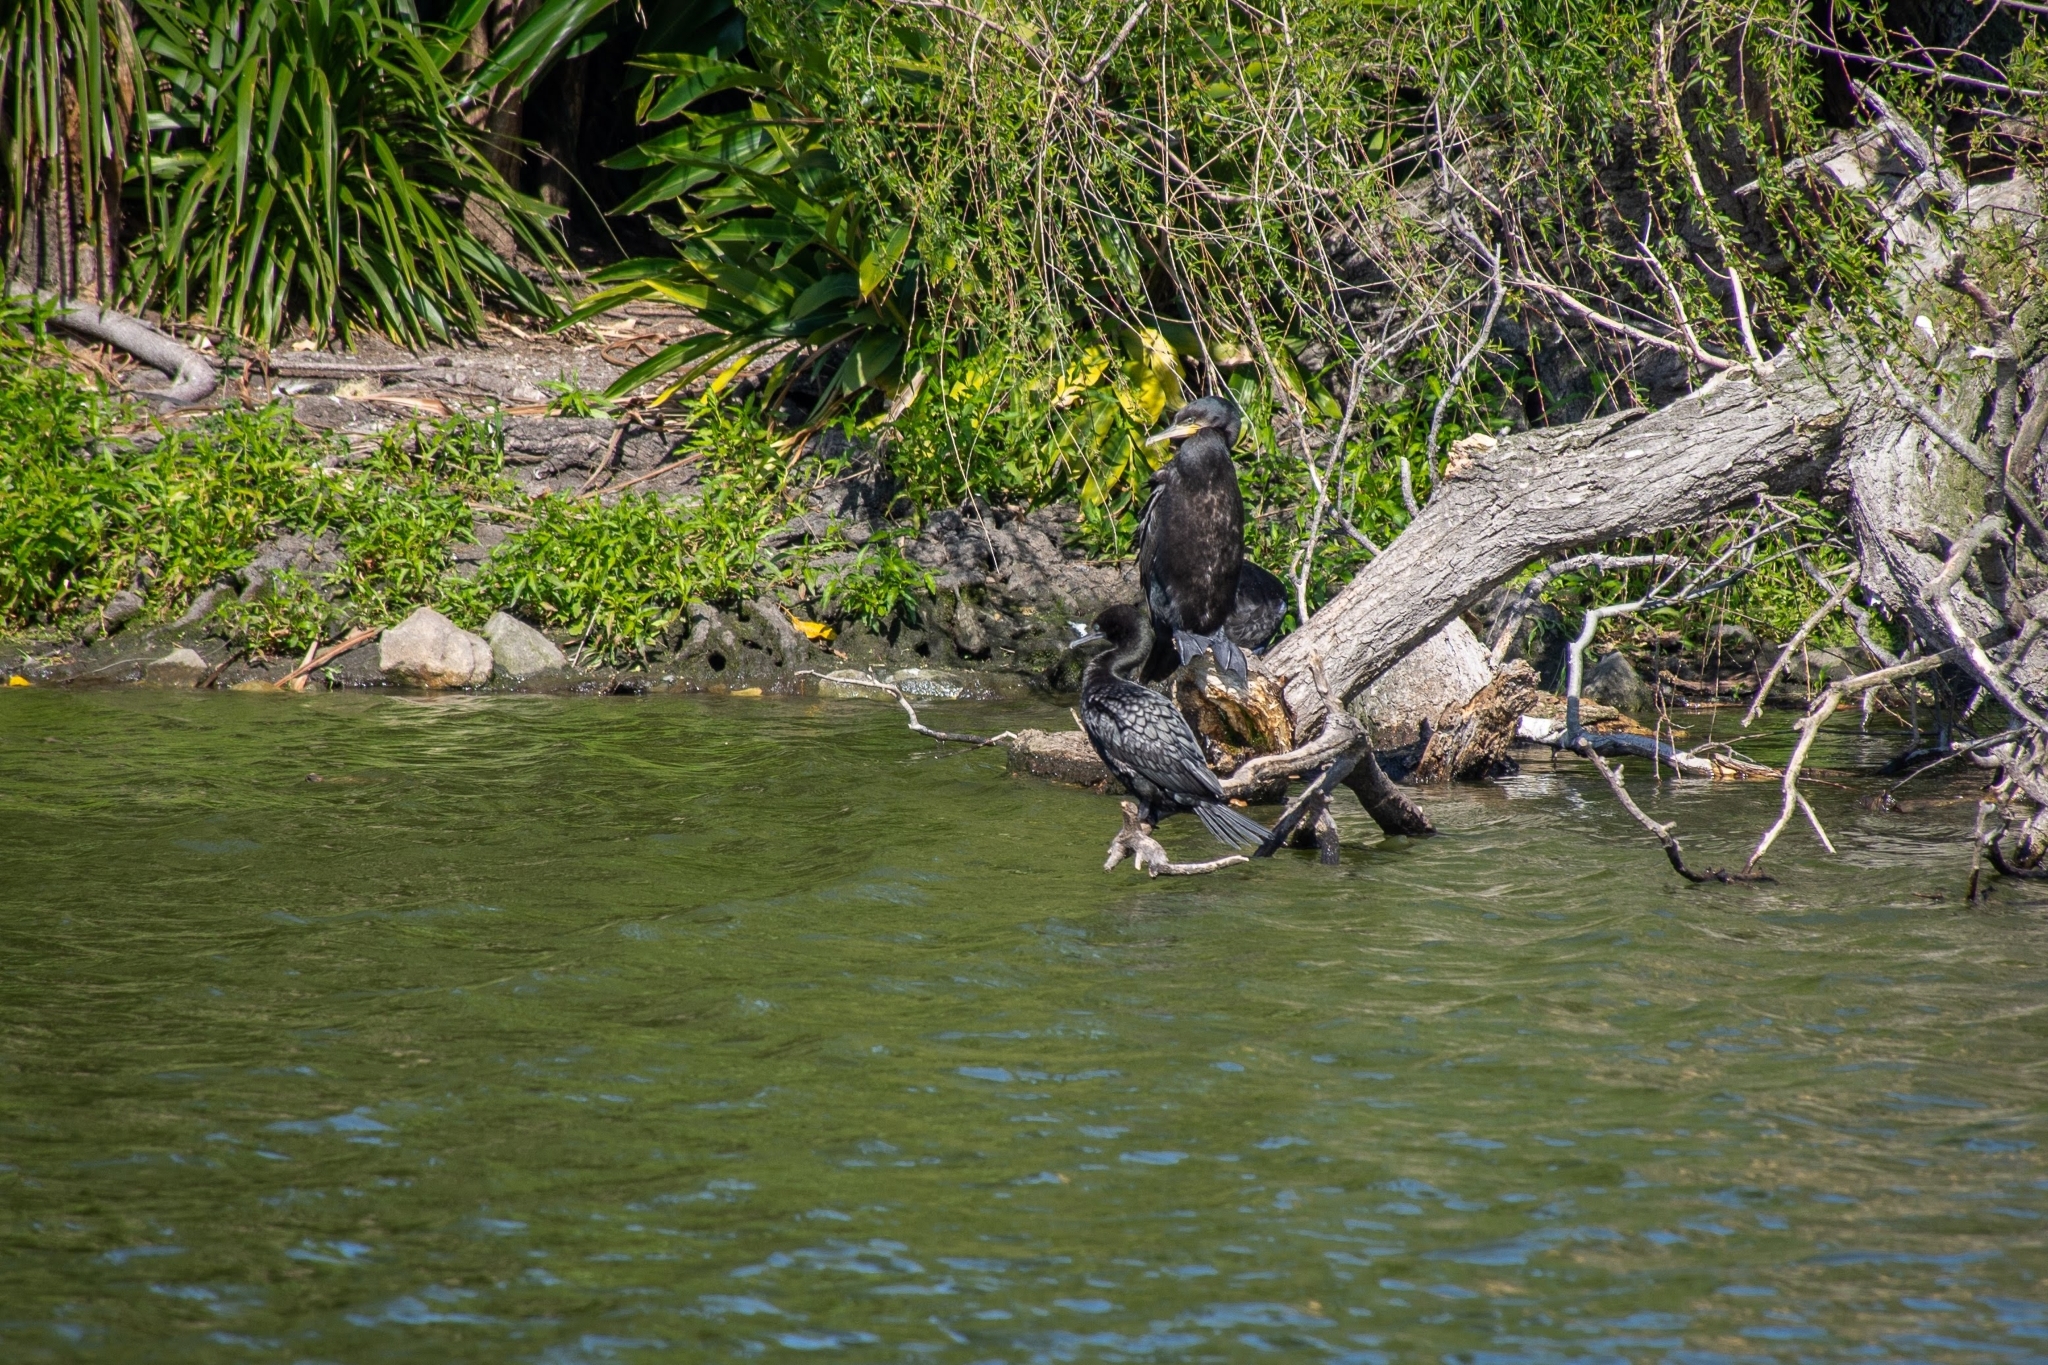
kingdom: Animalia
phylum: Chordata
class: Aves
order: Suliformes
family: Phalacrocoracidae
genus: Phalacrocorax
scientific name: Phalacrocorax carbo
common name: Great cormorant
